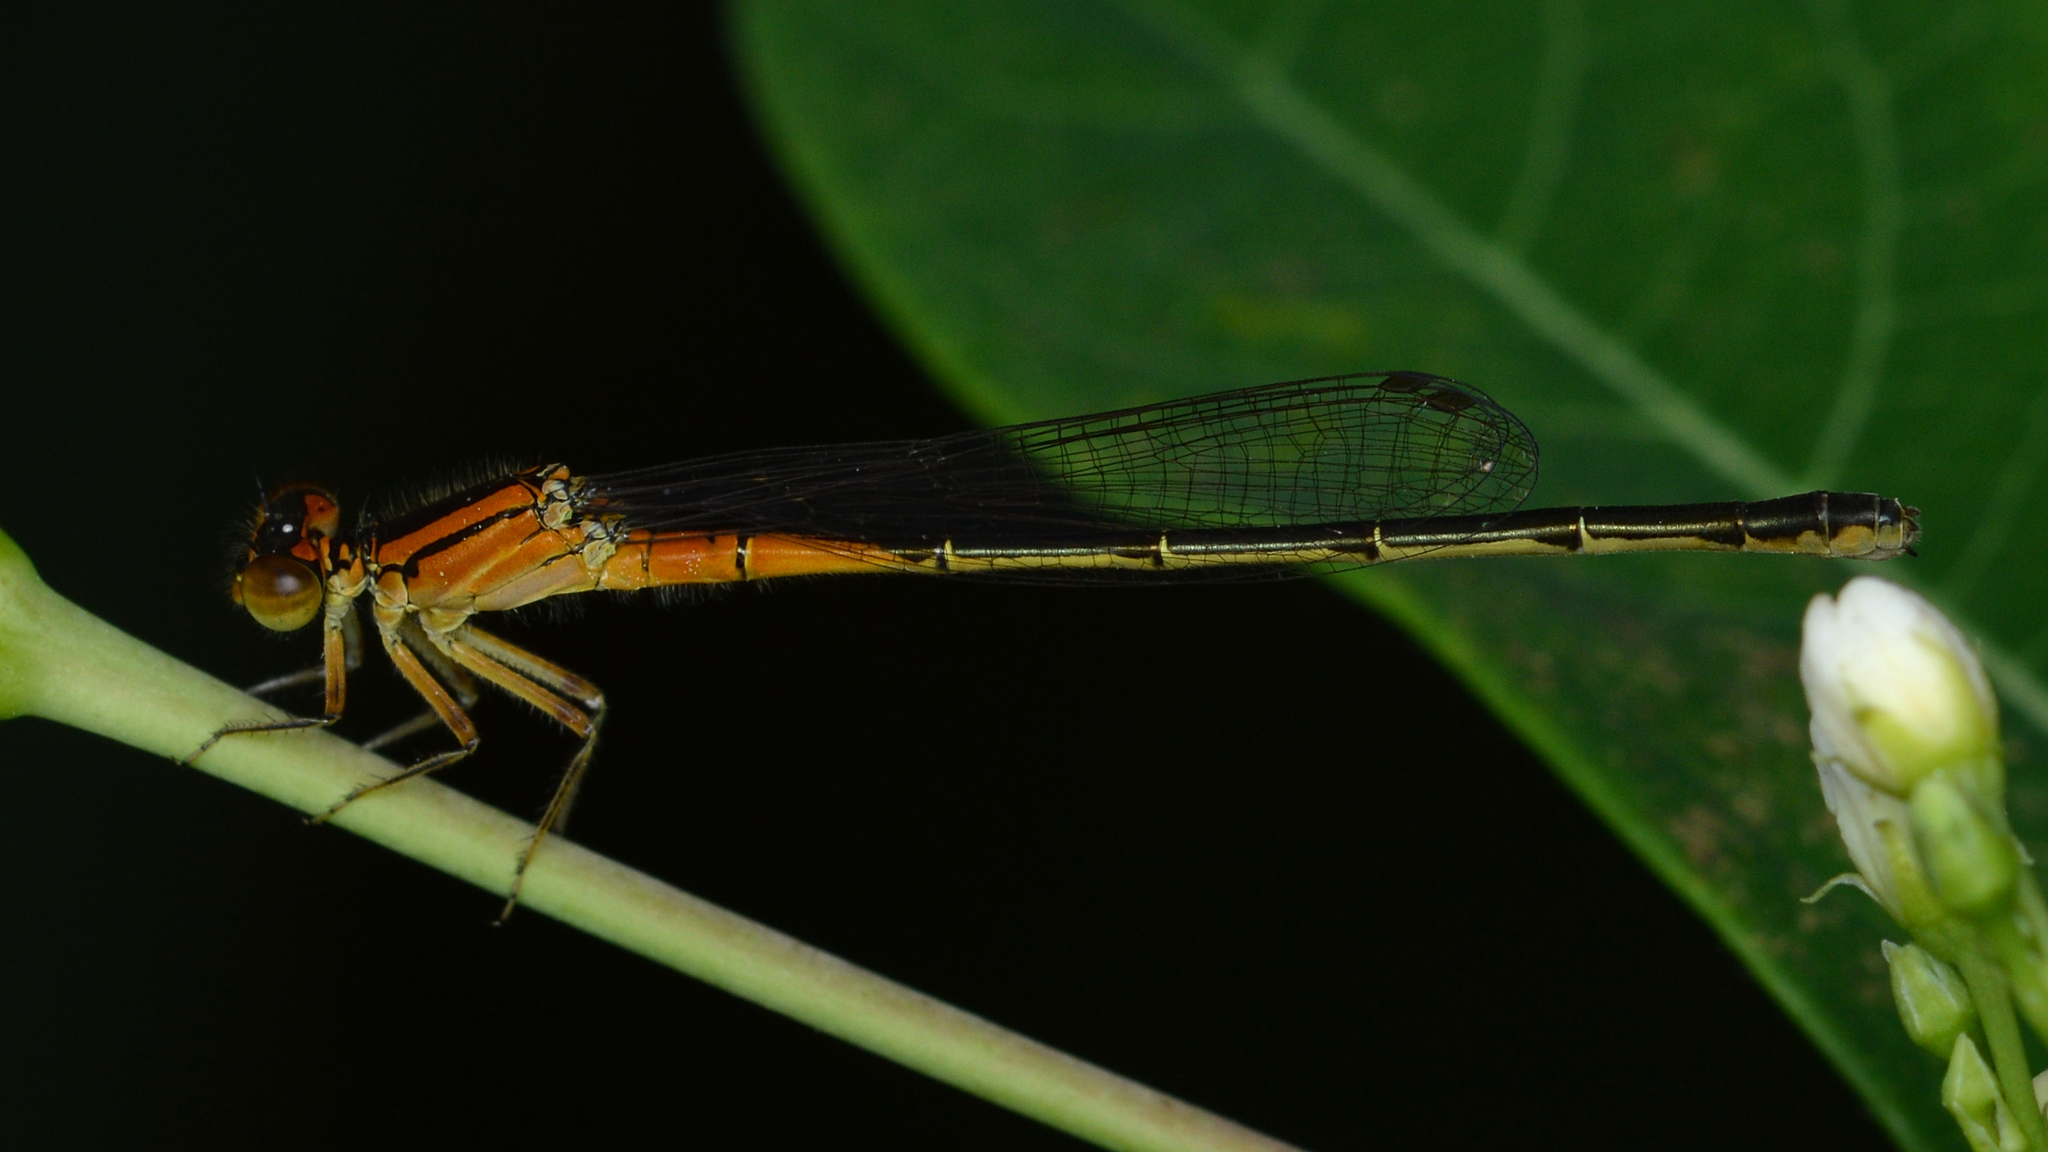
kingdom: Animalia
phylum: Arthropoda
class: Insecta
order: Odonata
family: Coenagrionidae
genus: Ischnura
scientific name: Ischnura verticalis
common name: Eastern forktail
